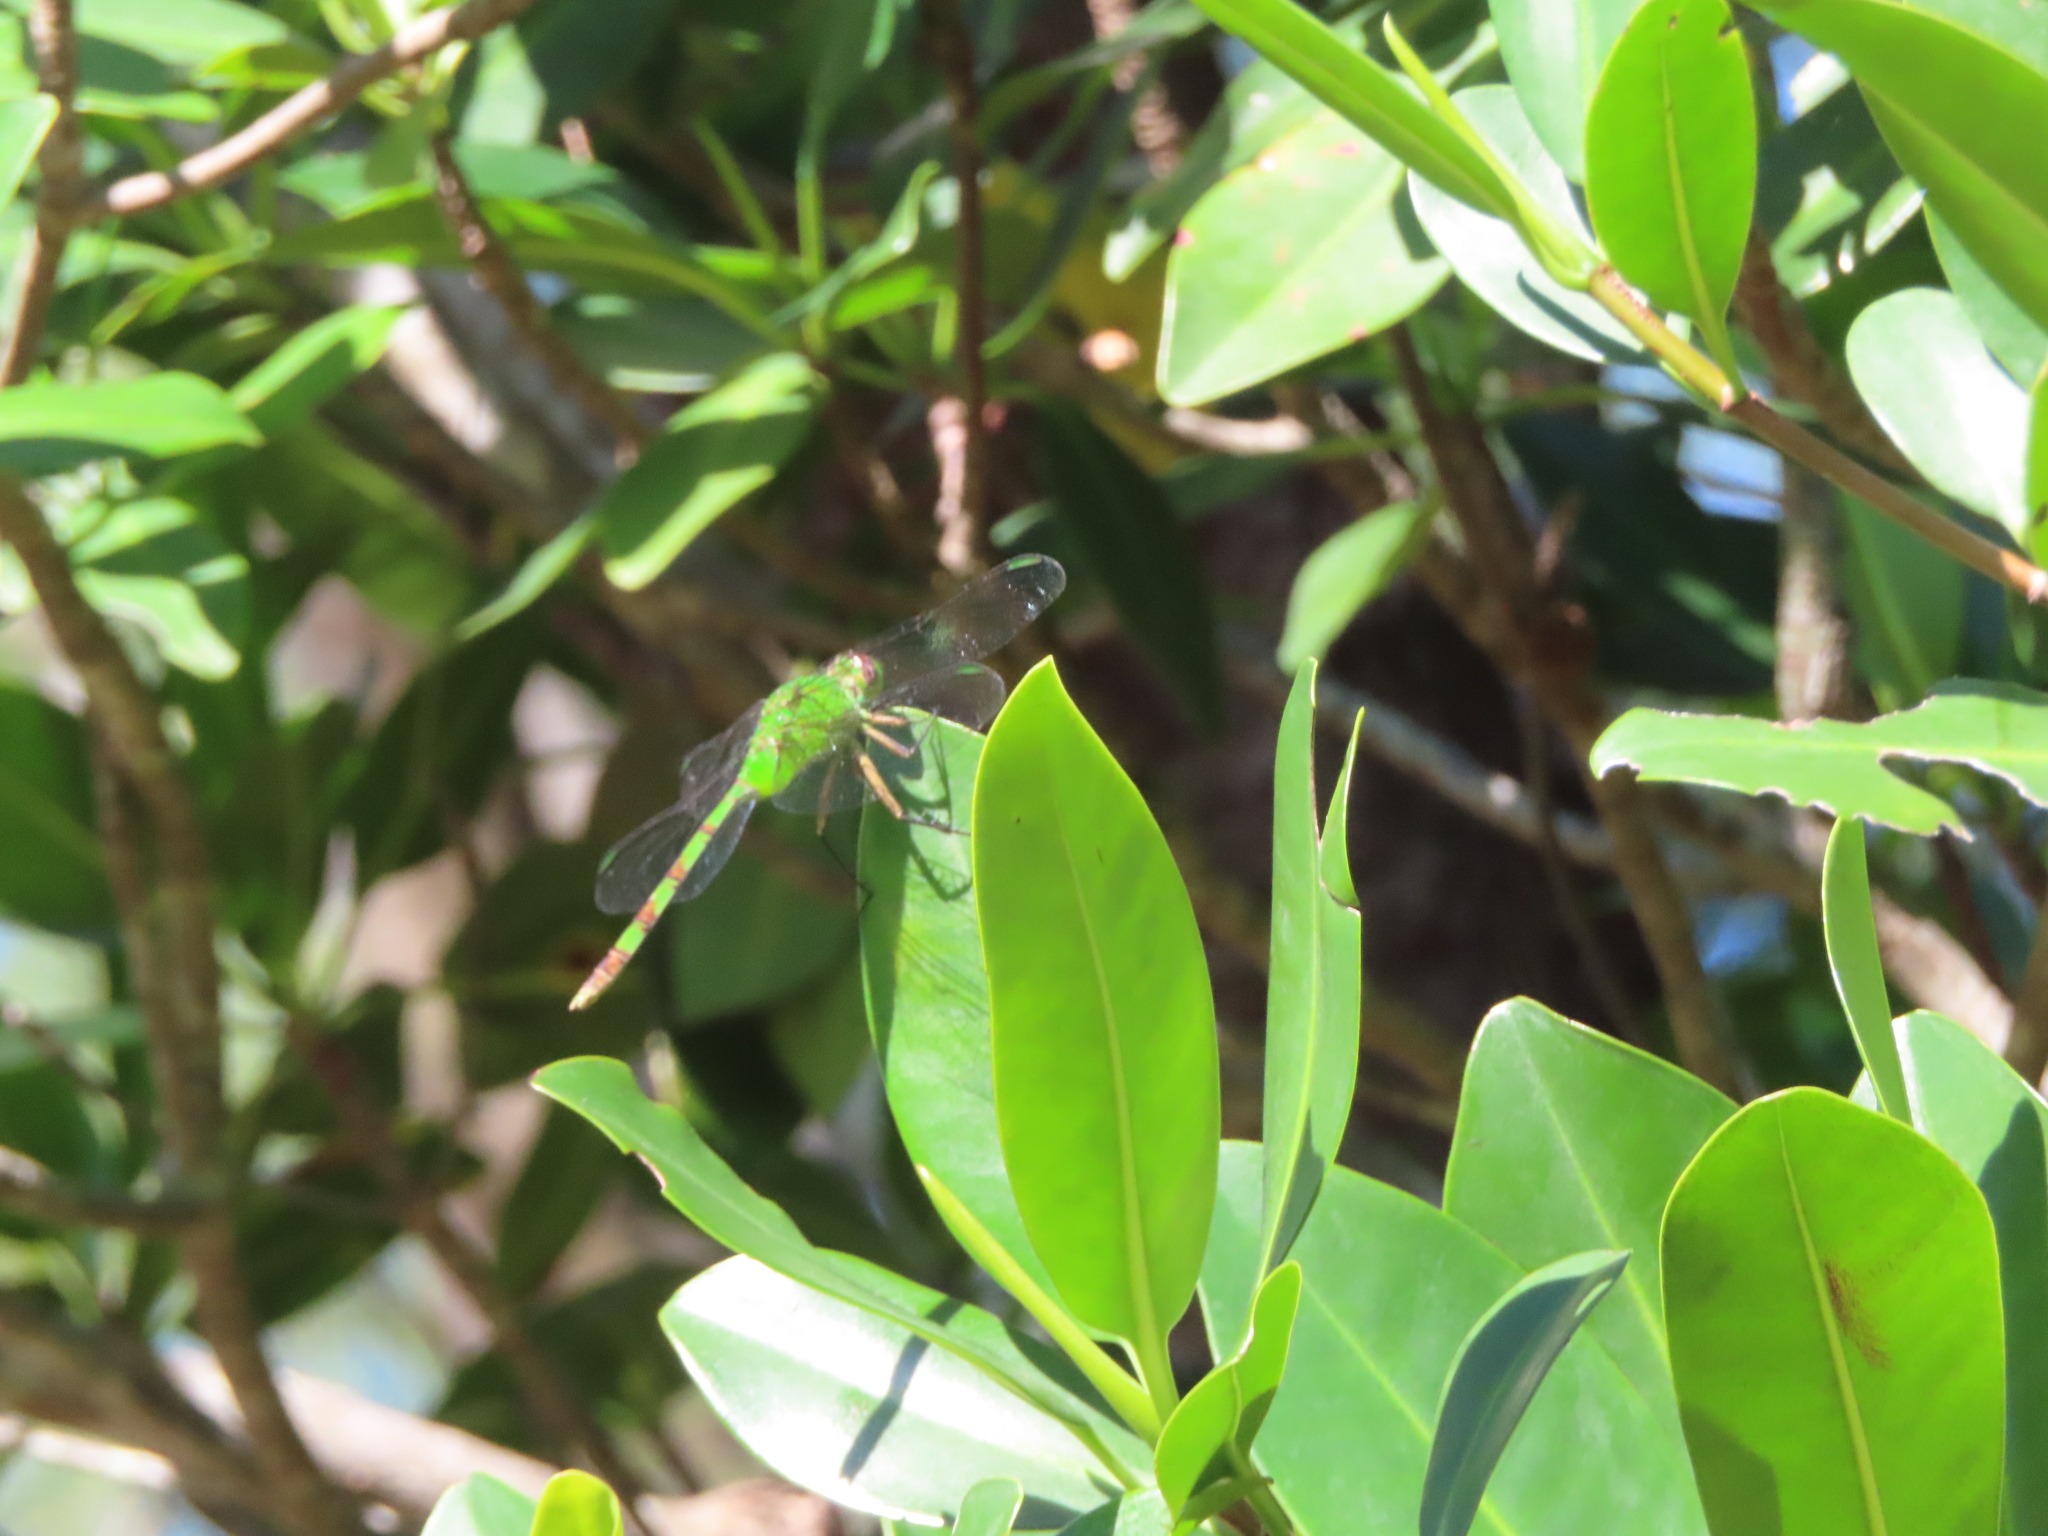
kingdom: Animalia
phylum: Arthropoda
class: Insecta
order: Odonata
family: Libellulidae
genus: Erythemis
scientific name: Erythemis vesiculosa
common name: Great pondhawk
